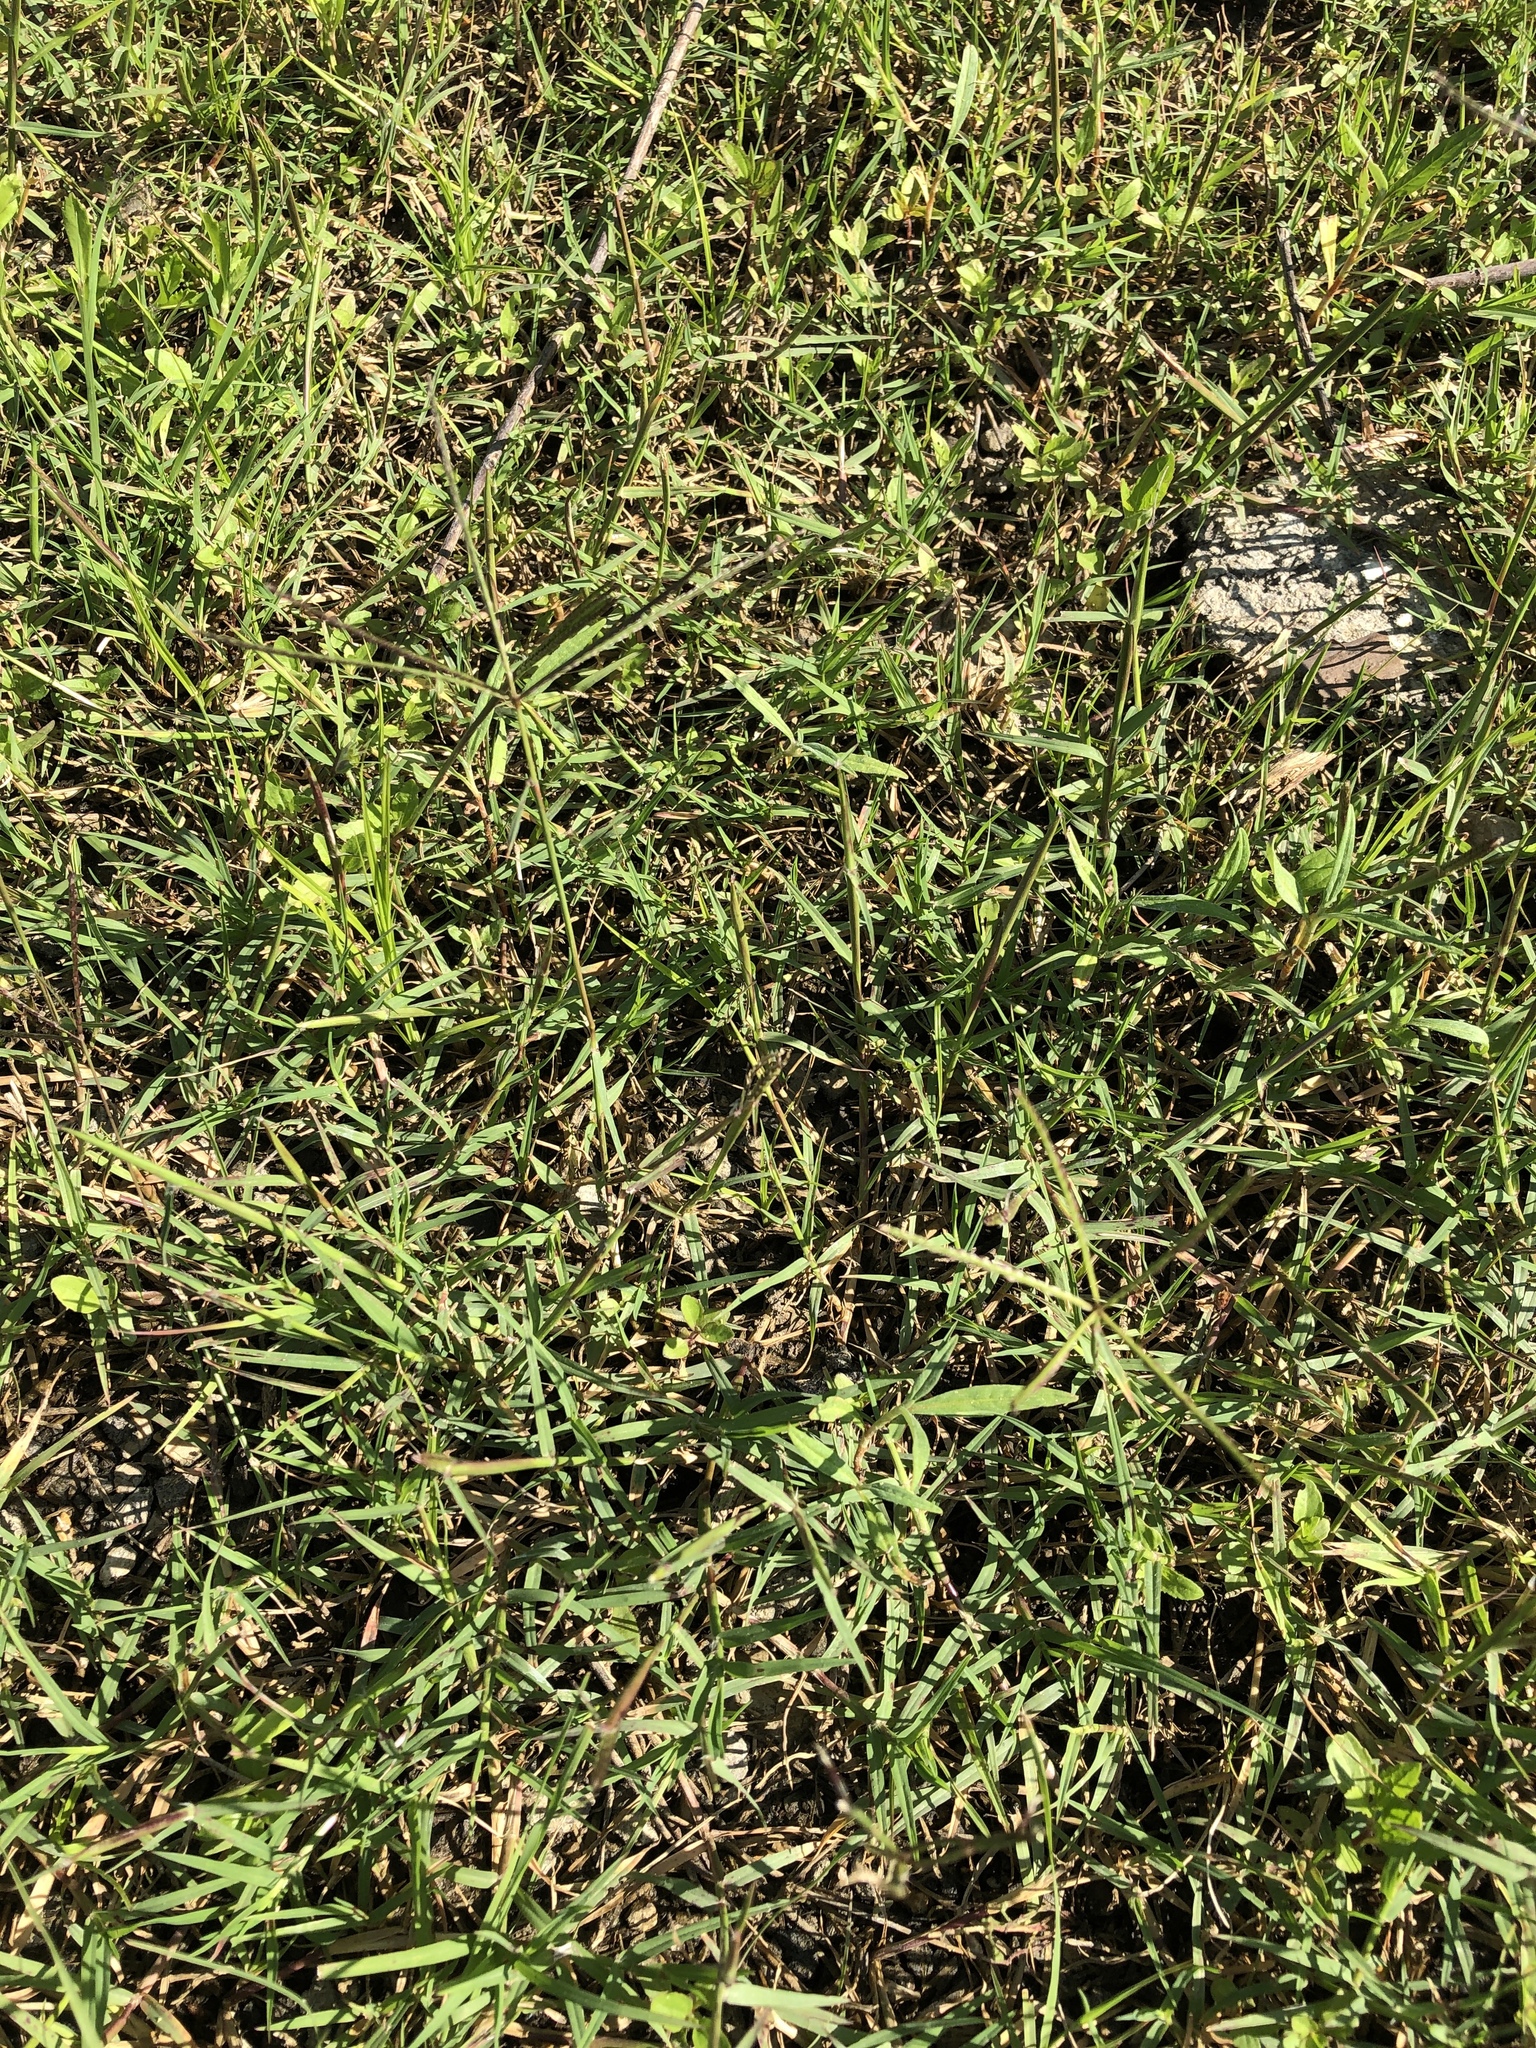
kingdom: Plantae
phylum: Tracheophyta
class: Liliopsida
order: Poales
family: Poaceae
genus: Cynodon
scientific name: Cynodon dactylon
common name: Bermuda grass
